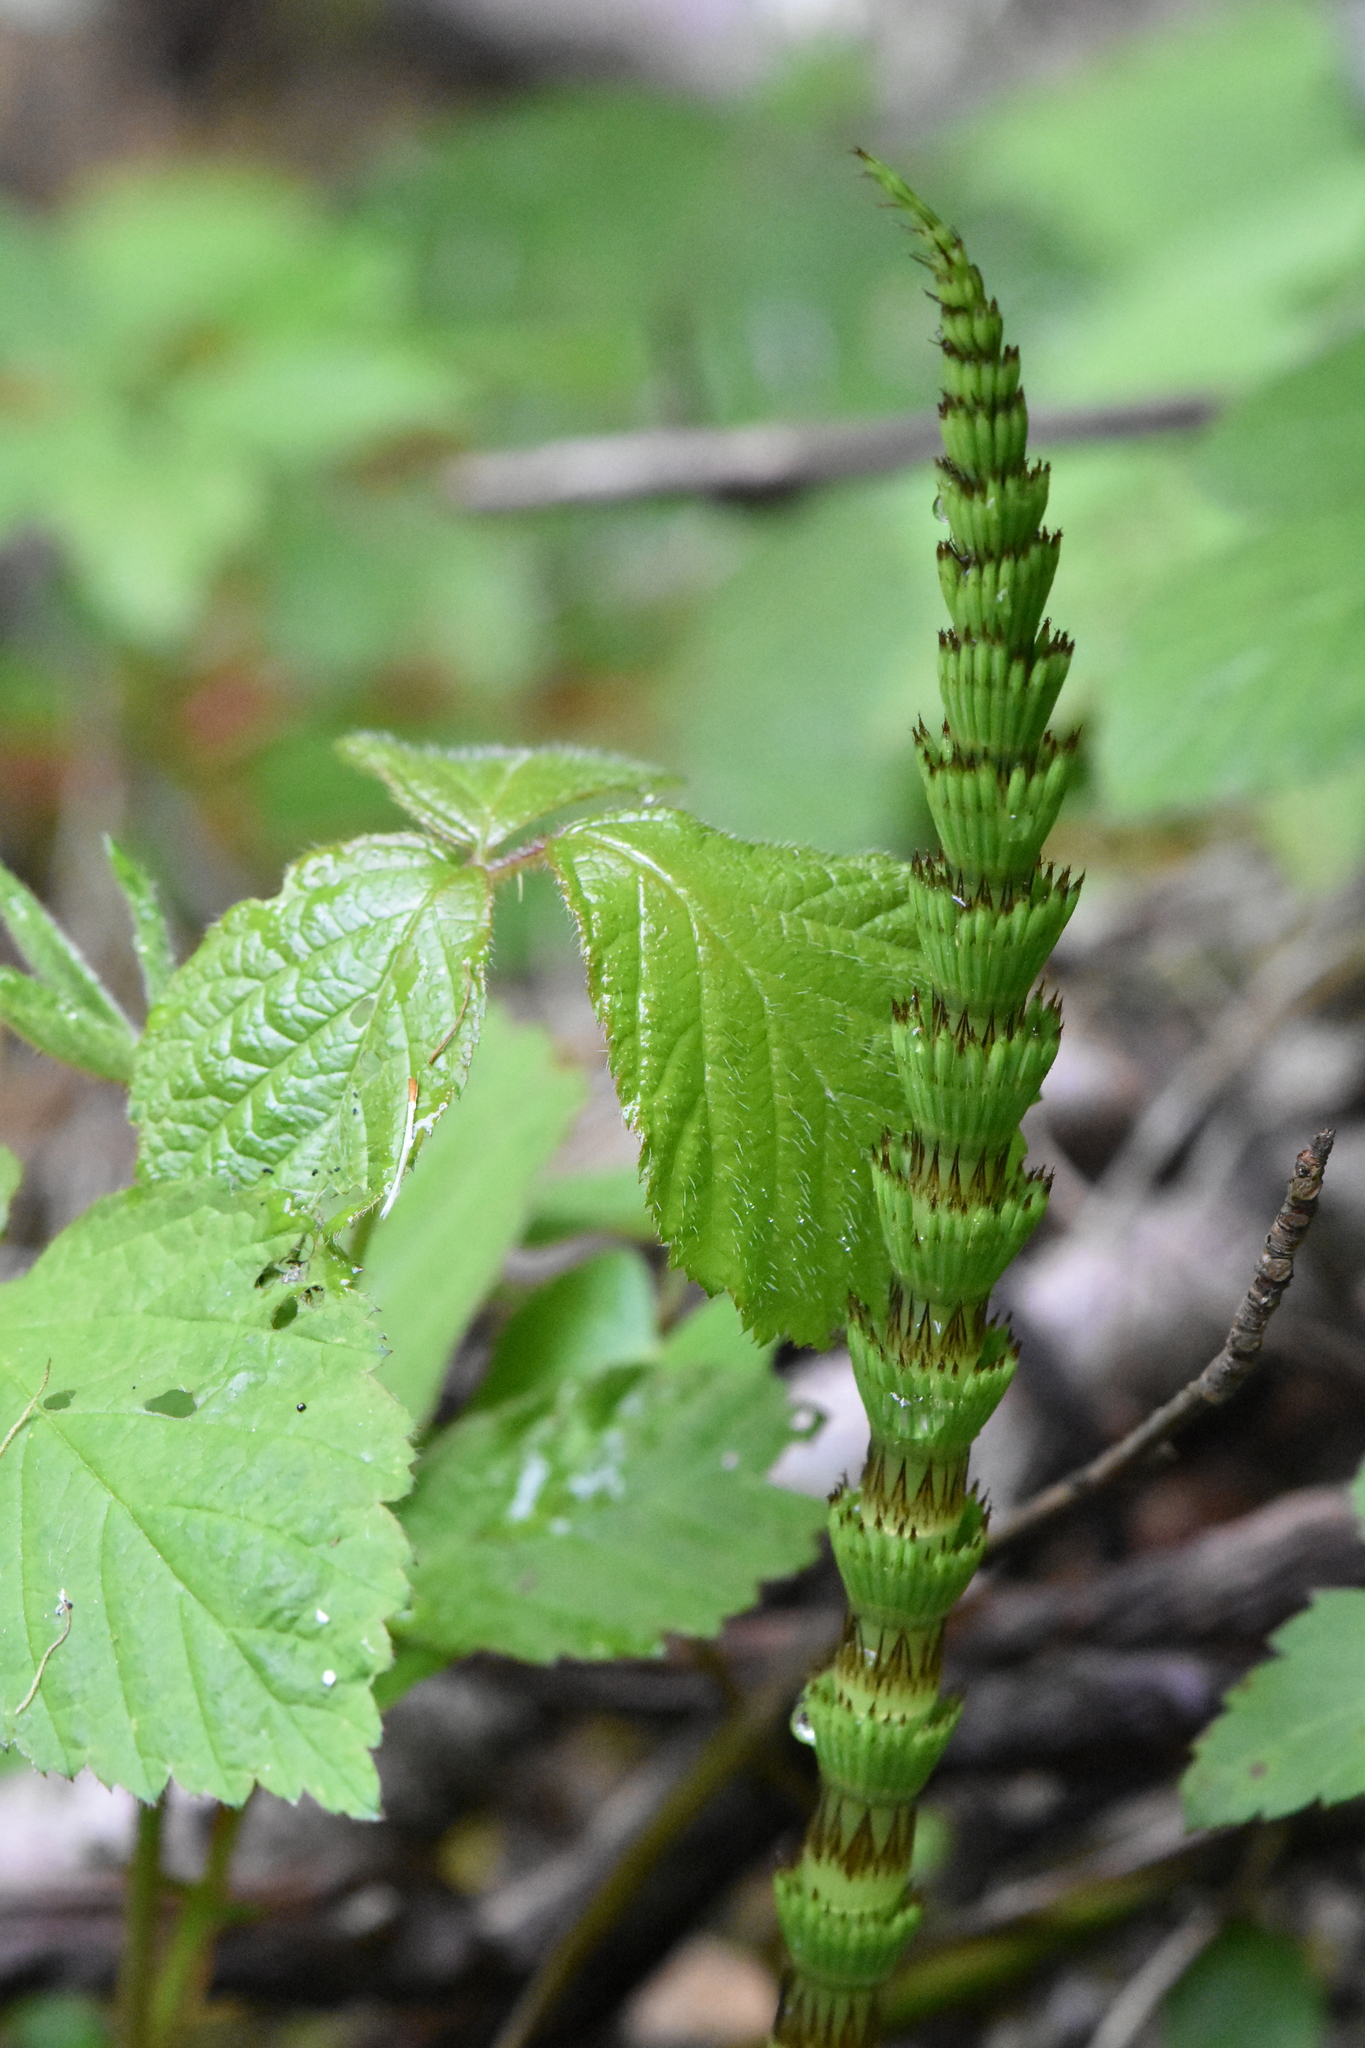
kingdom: Plantae
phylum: Tracheophyta
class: Polypodiopsida
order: Equisetales
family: Equisetaceae
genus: Equisetum
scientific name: Equisetum telmateia
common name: Great horsetail
